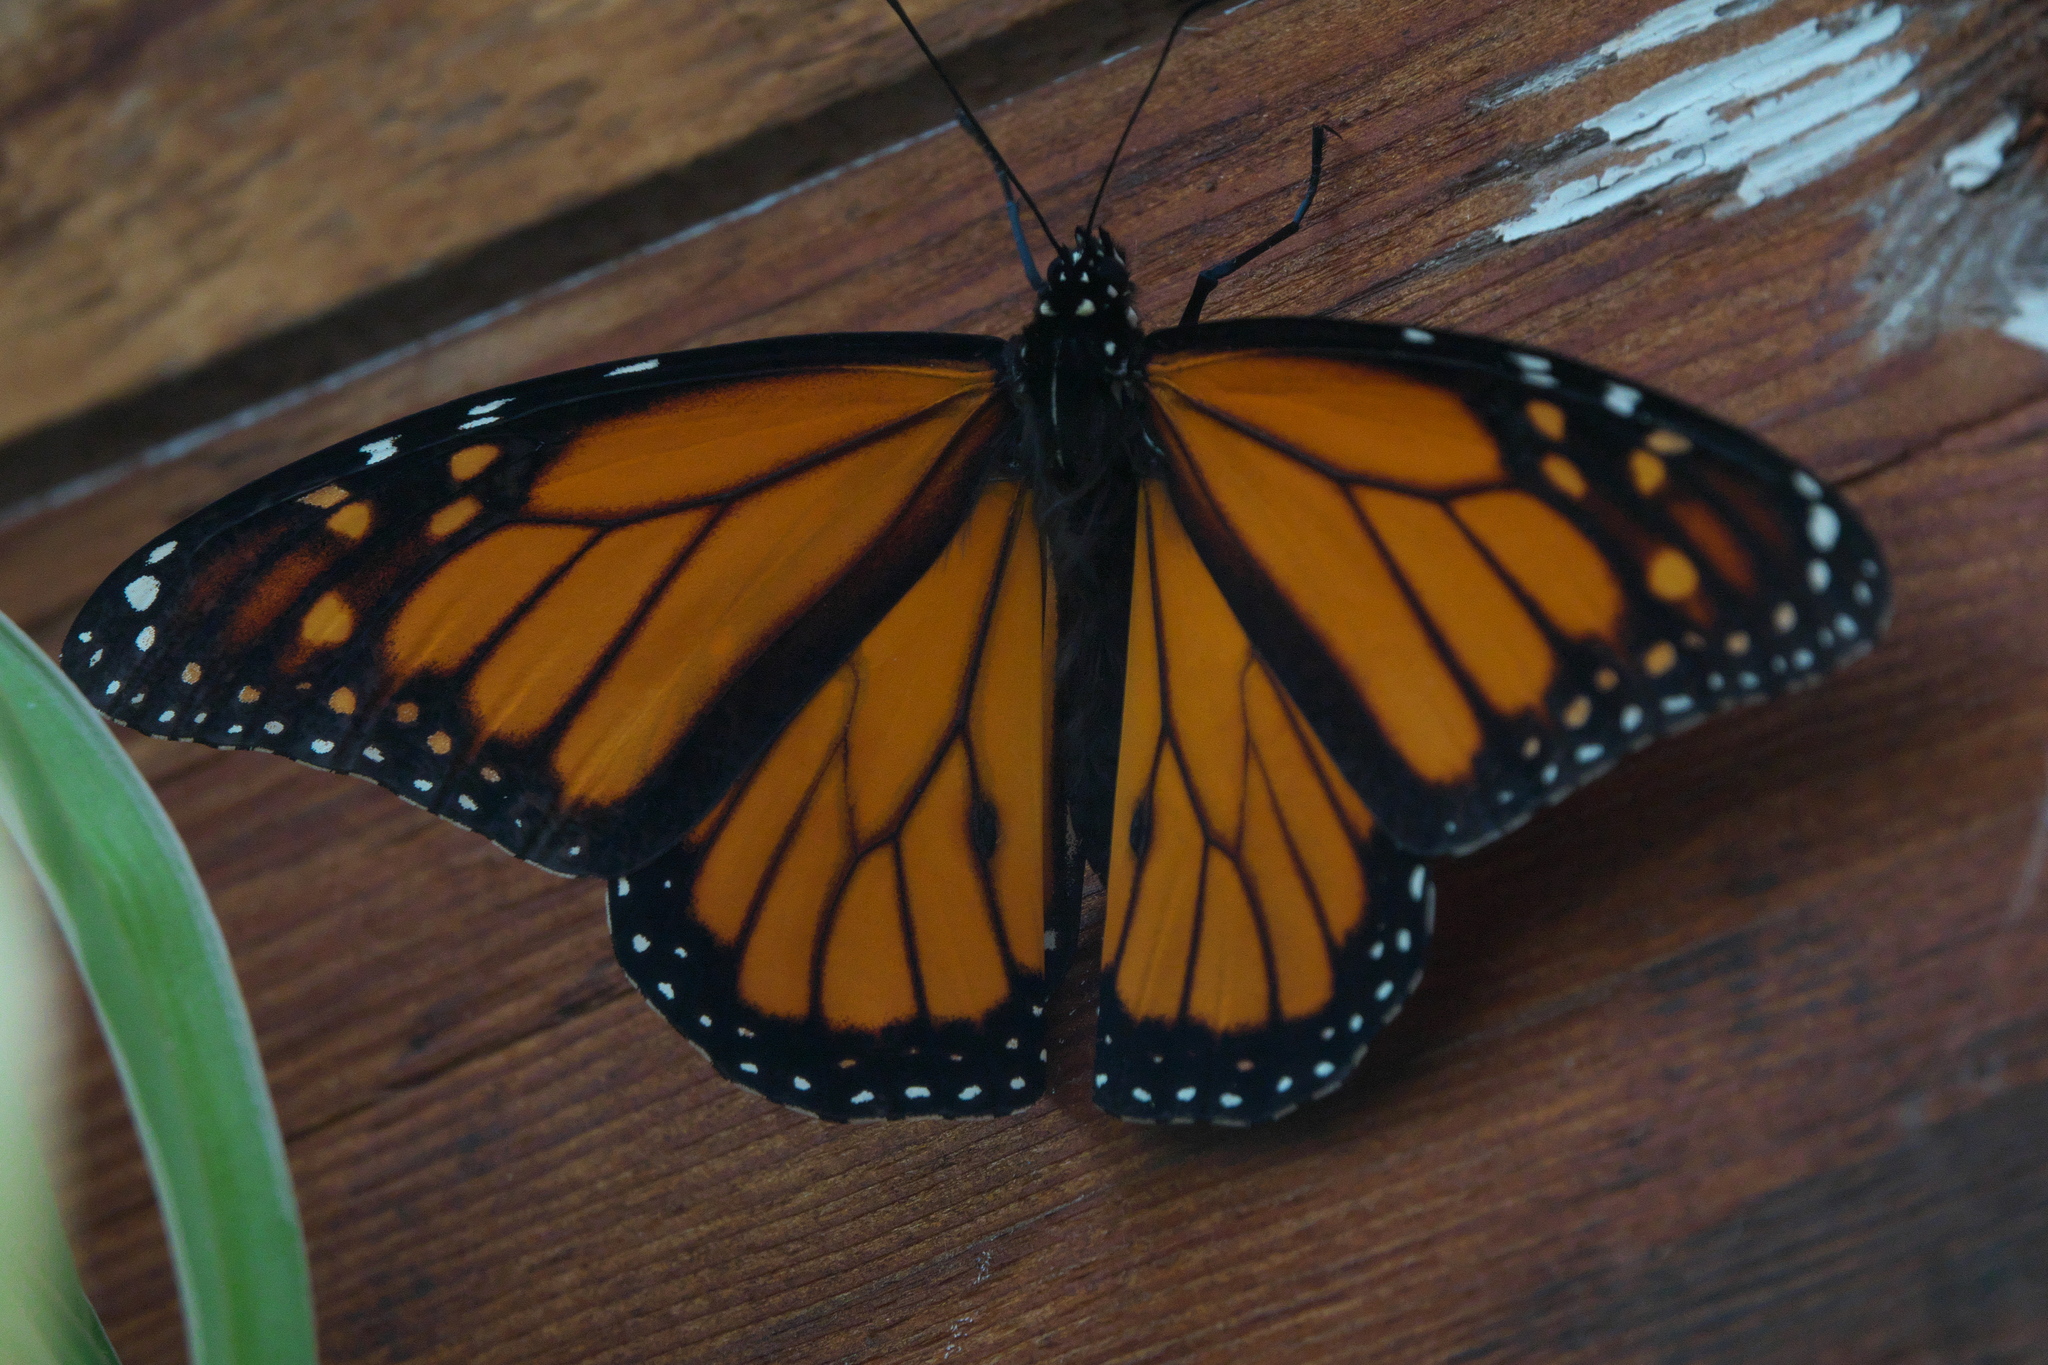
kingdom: Animalia
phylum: Arthropoda
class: Insecta
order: Lepidoptera
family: Nymphalidae
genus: Danaus
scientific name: Danaus plexippus
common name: Monarch
